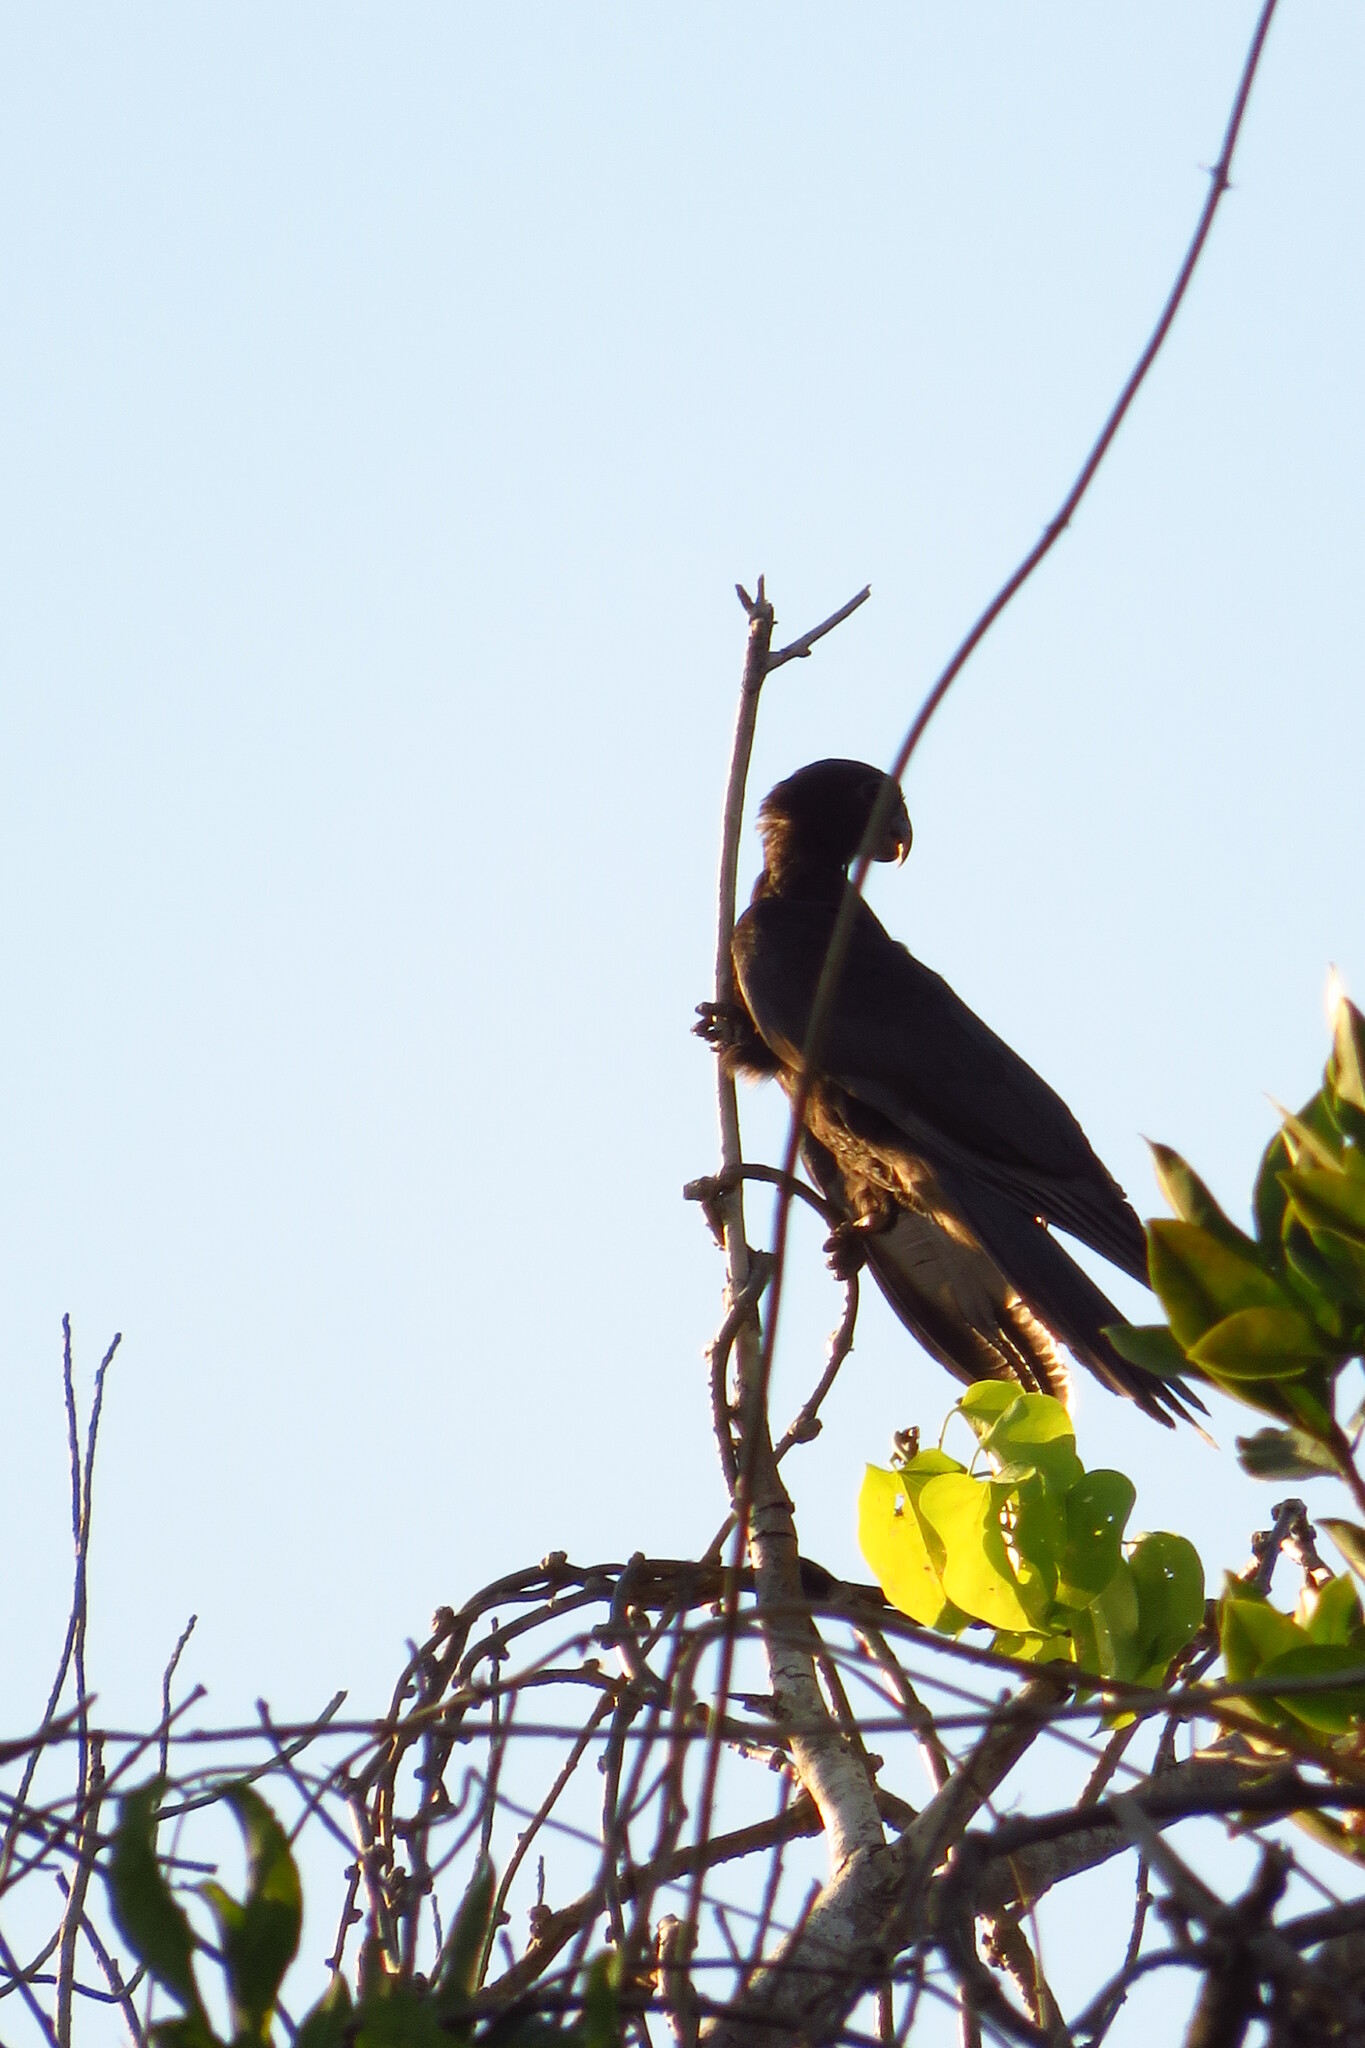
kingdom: Animalia
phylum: Chordata
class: Aves
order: Psittaciformes
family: Psittacidae
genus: Coracopsis
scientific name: Coracopsis vasa
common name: Greater vasa parrot
